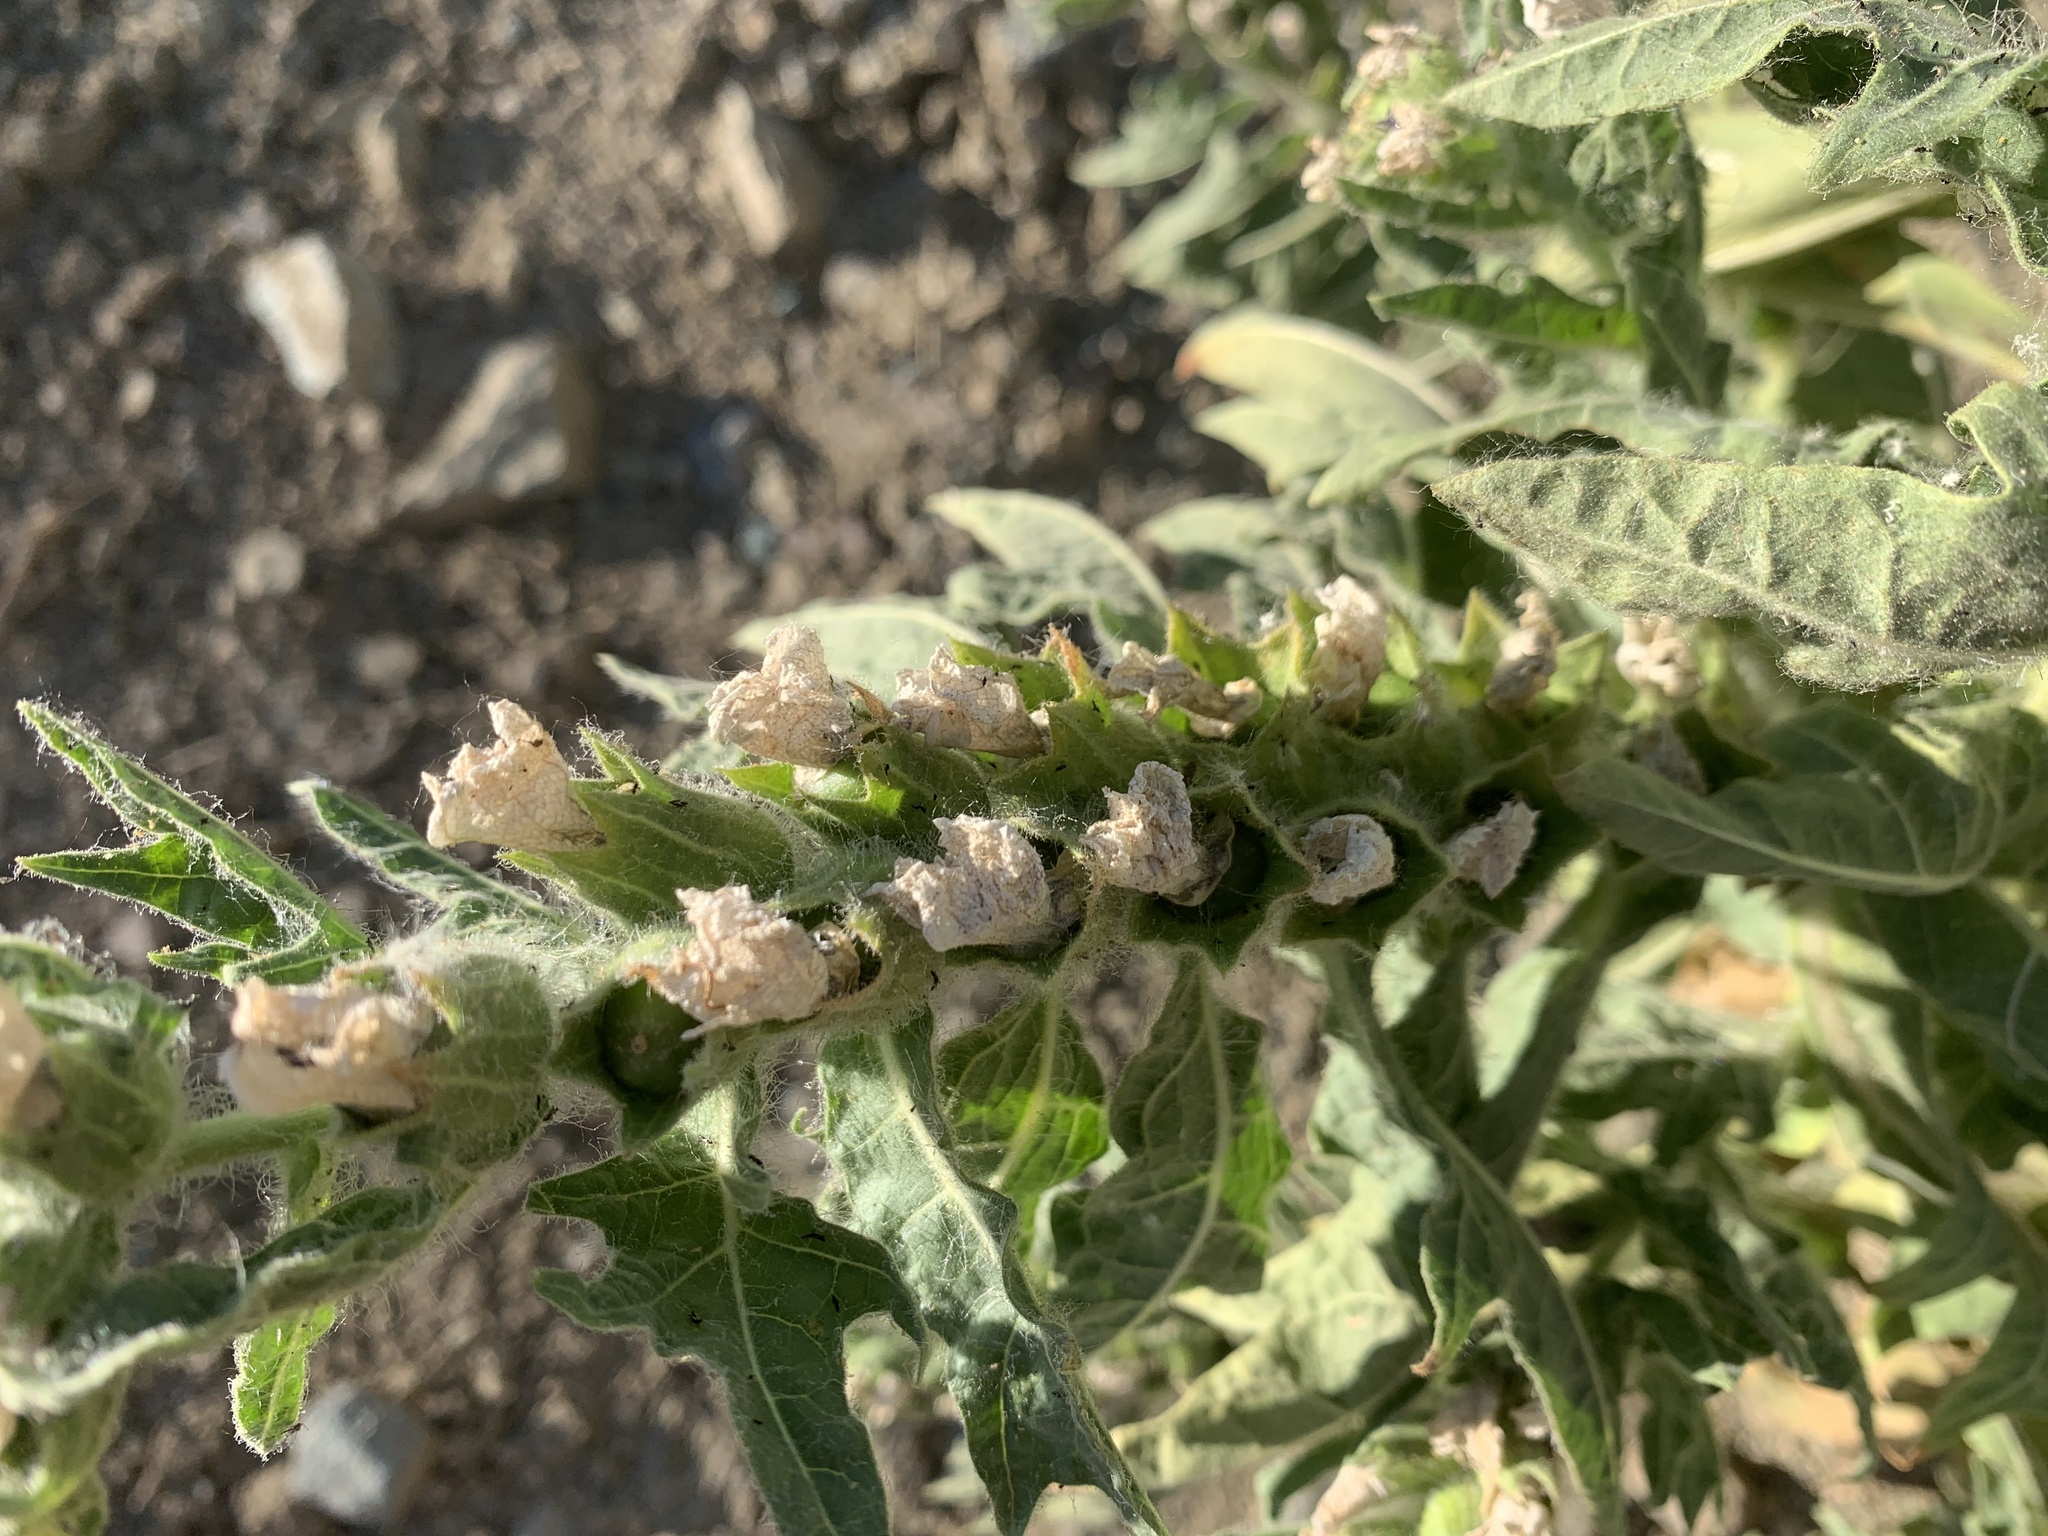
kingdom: Plantae
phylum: Tracheophyta
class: Magnoliopsida
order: Solanales
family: Solanaceae
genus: Hyoscyamus
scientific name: Hyoscyamus niger
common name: Henbane
